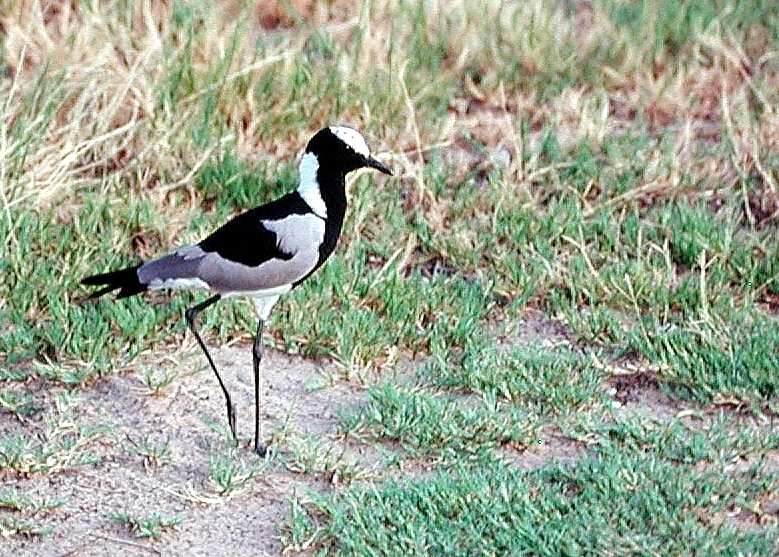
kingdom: Animalia
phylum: Chordata
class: Aves
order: Charadriiformes
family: Charadriidae
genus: Vanellus
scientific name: Vanellus armatus
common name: Blacksmith lapwing
